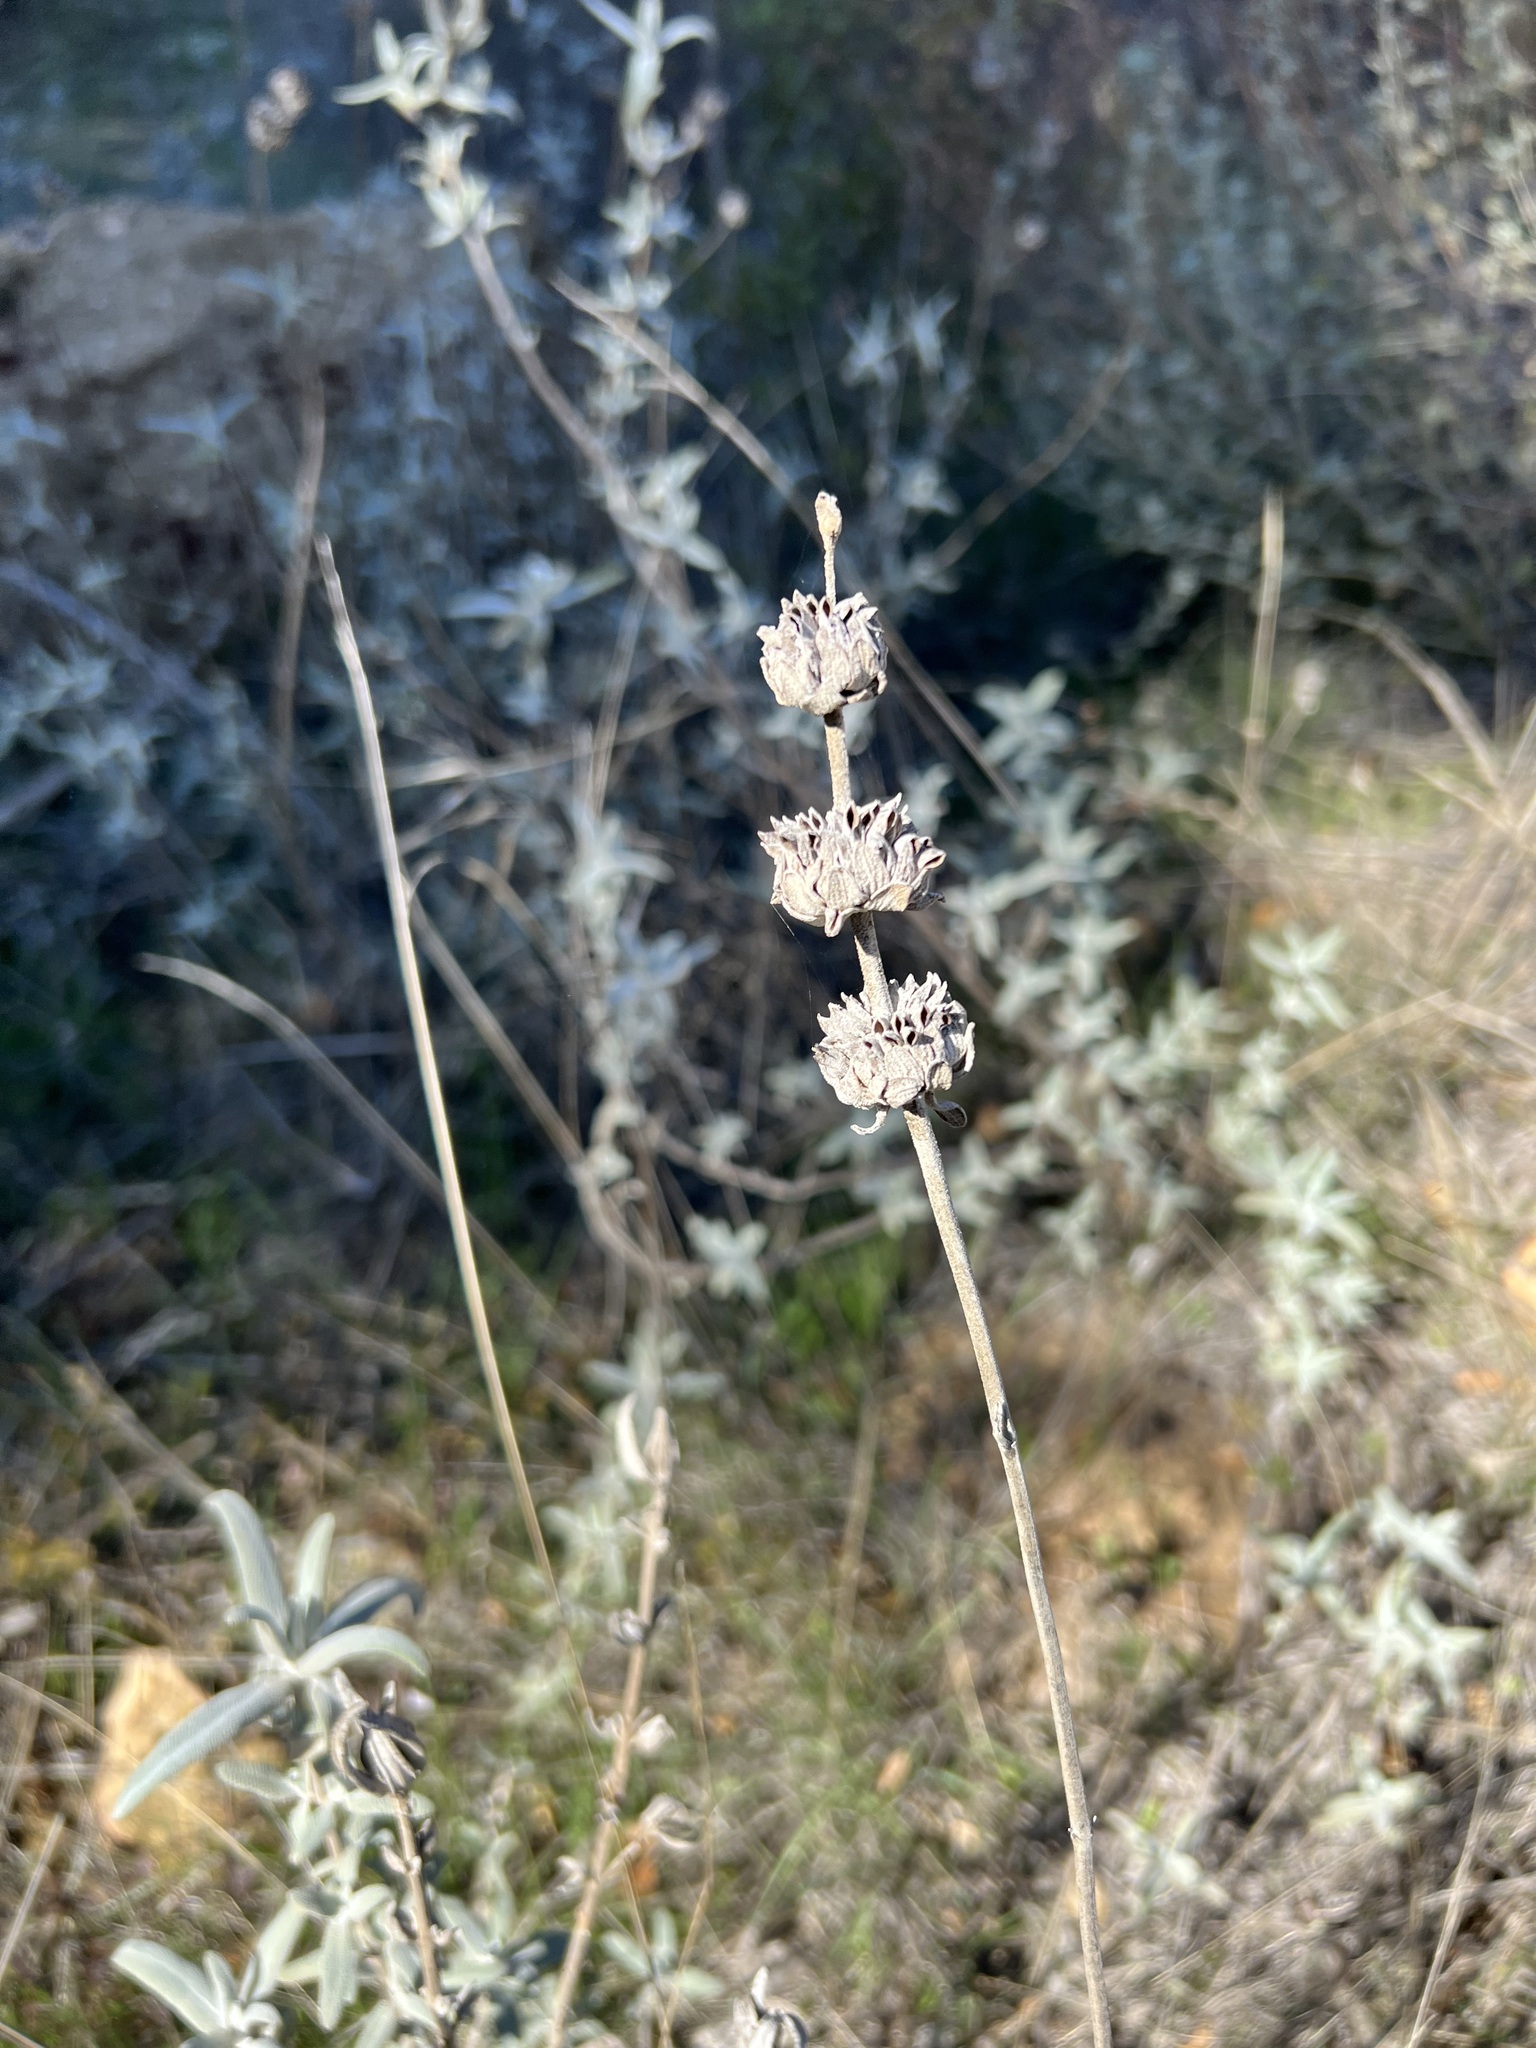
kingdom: Plantae
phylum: Tracheophyta
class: Magnoliopsida
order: Lamiales
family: Lamiaceae
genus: Salvia
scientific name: Salvia leucophylla
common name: Purple sage
